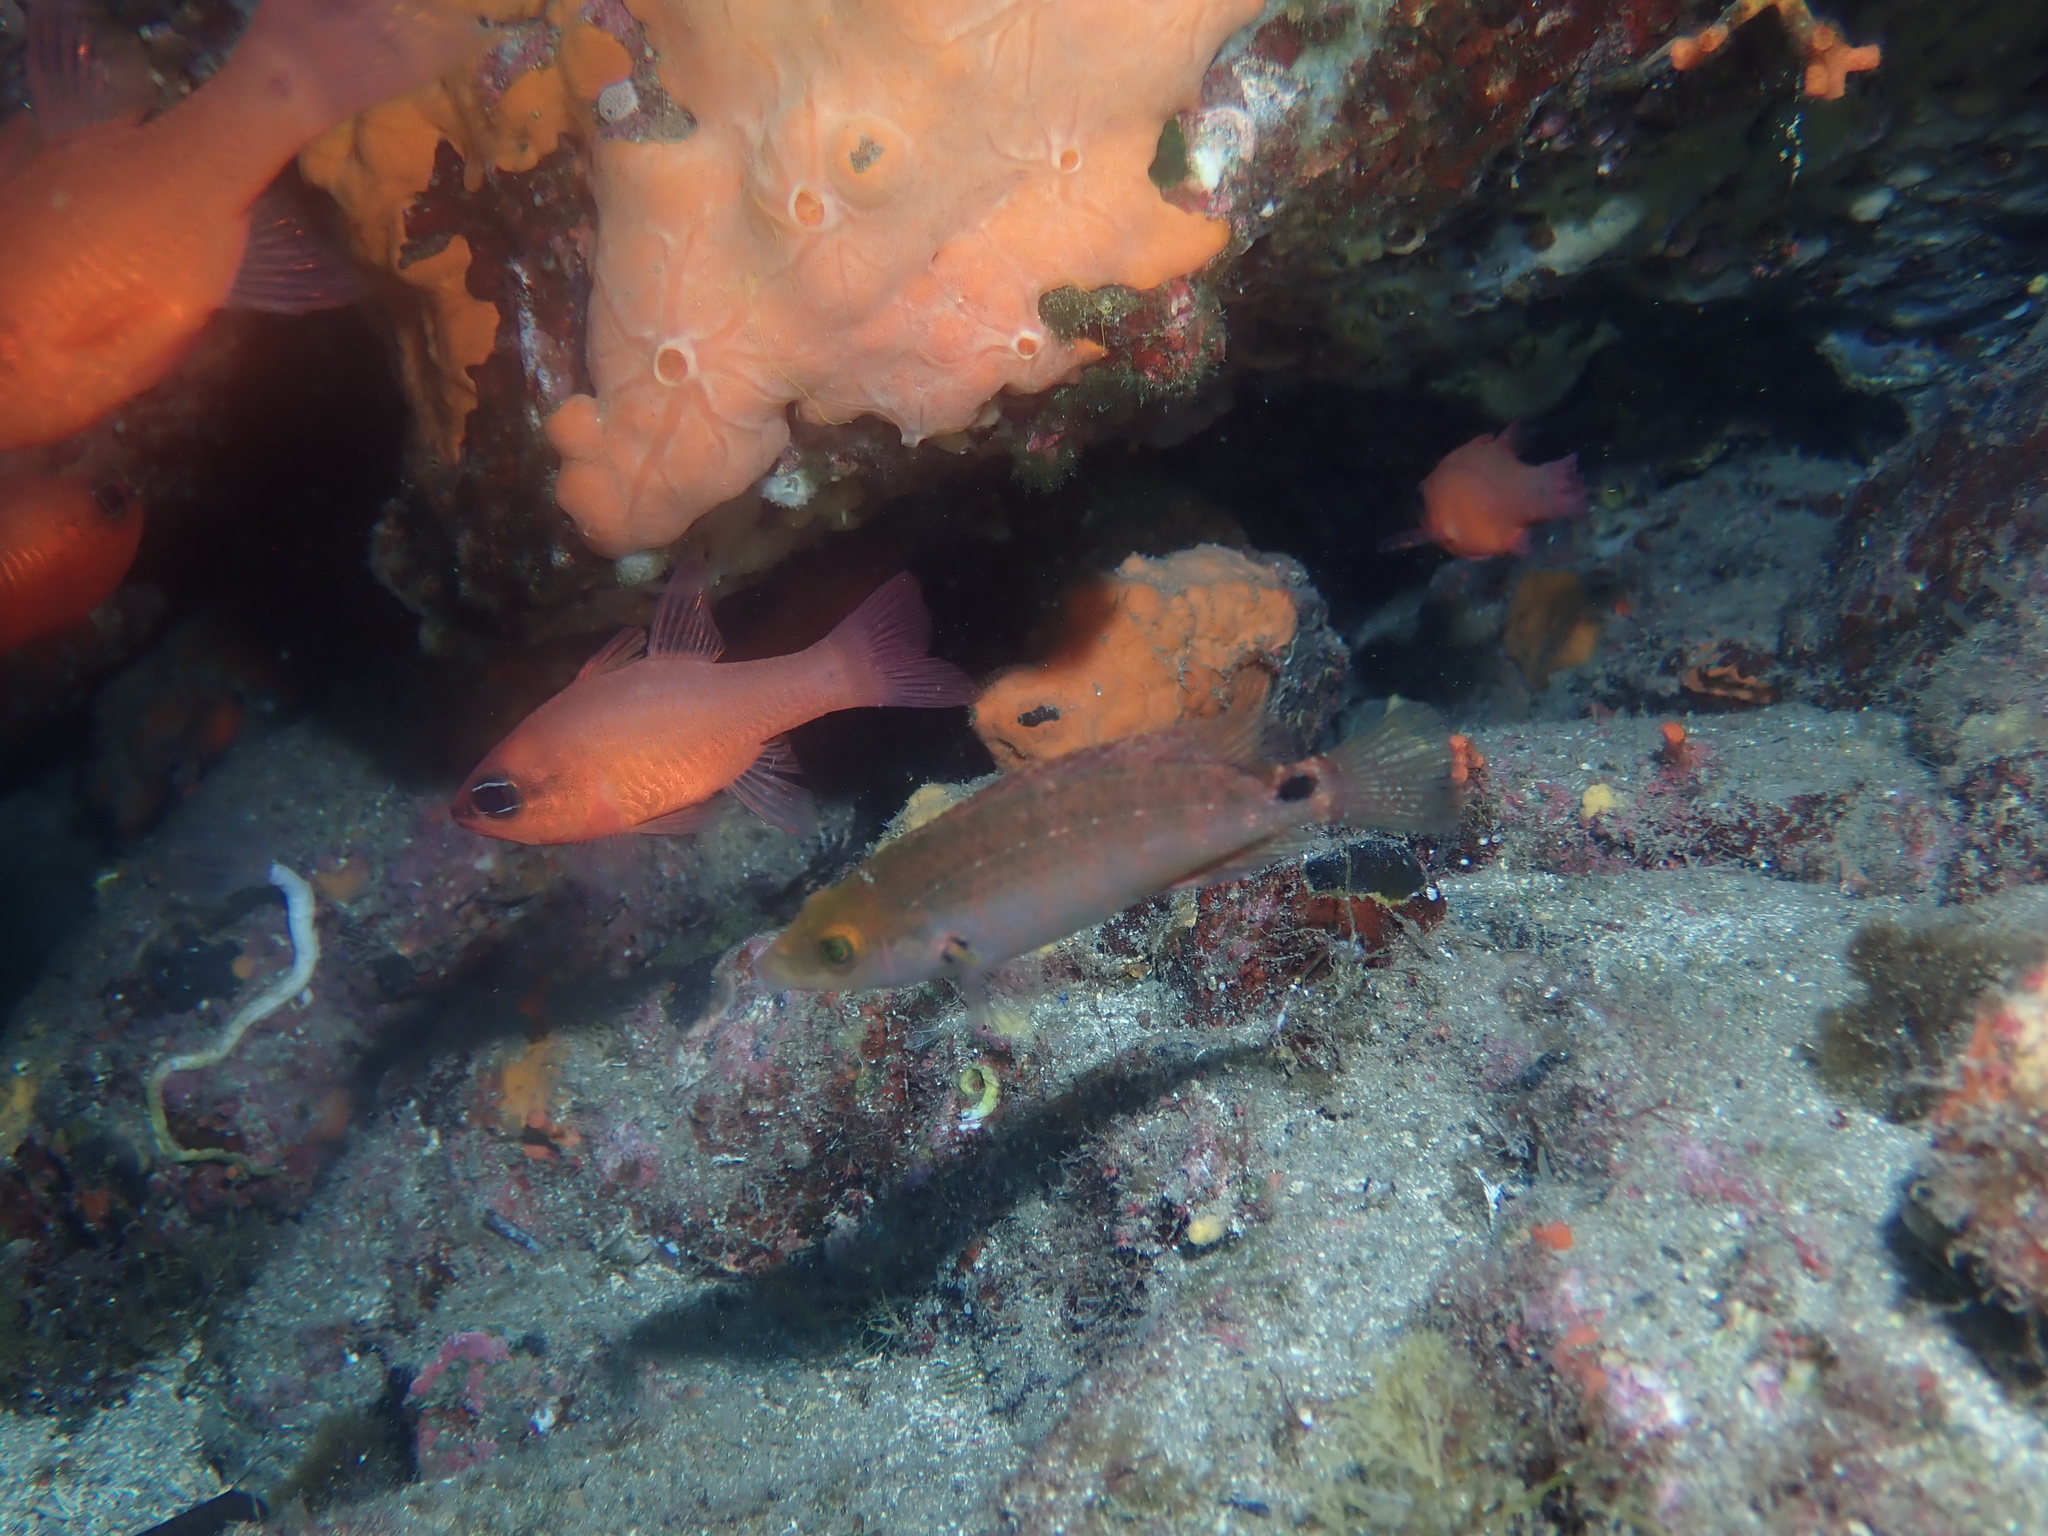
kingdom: Animalia
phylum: Chordata
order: Perciformes
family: Labridae
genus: Symphodus
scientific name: Symphodus mediterraneus
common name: Axillary wrasse
